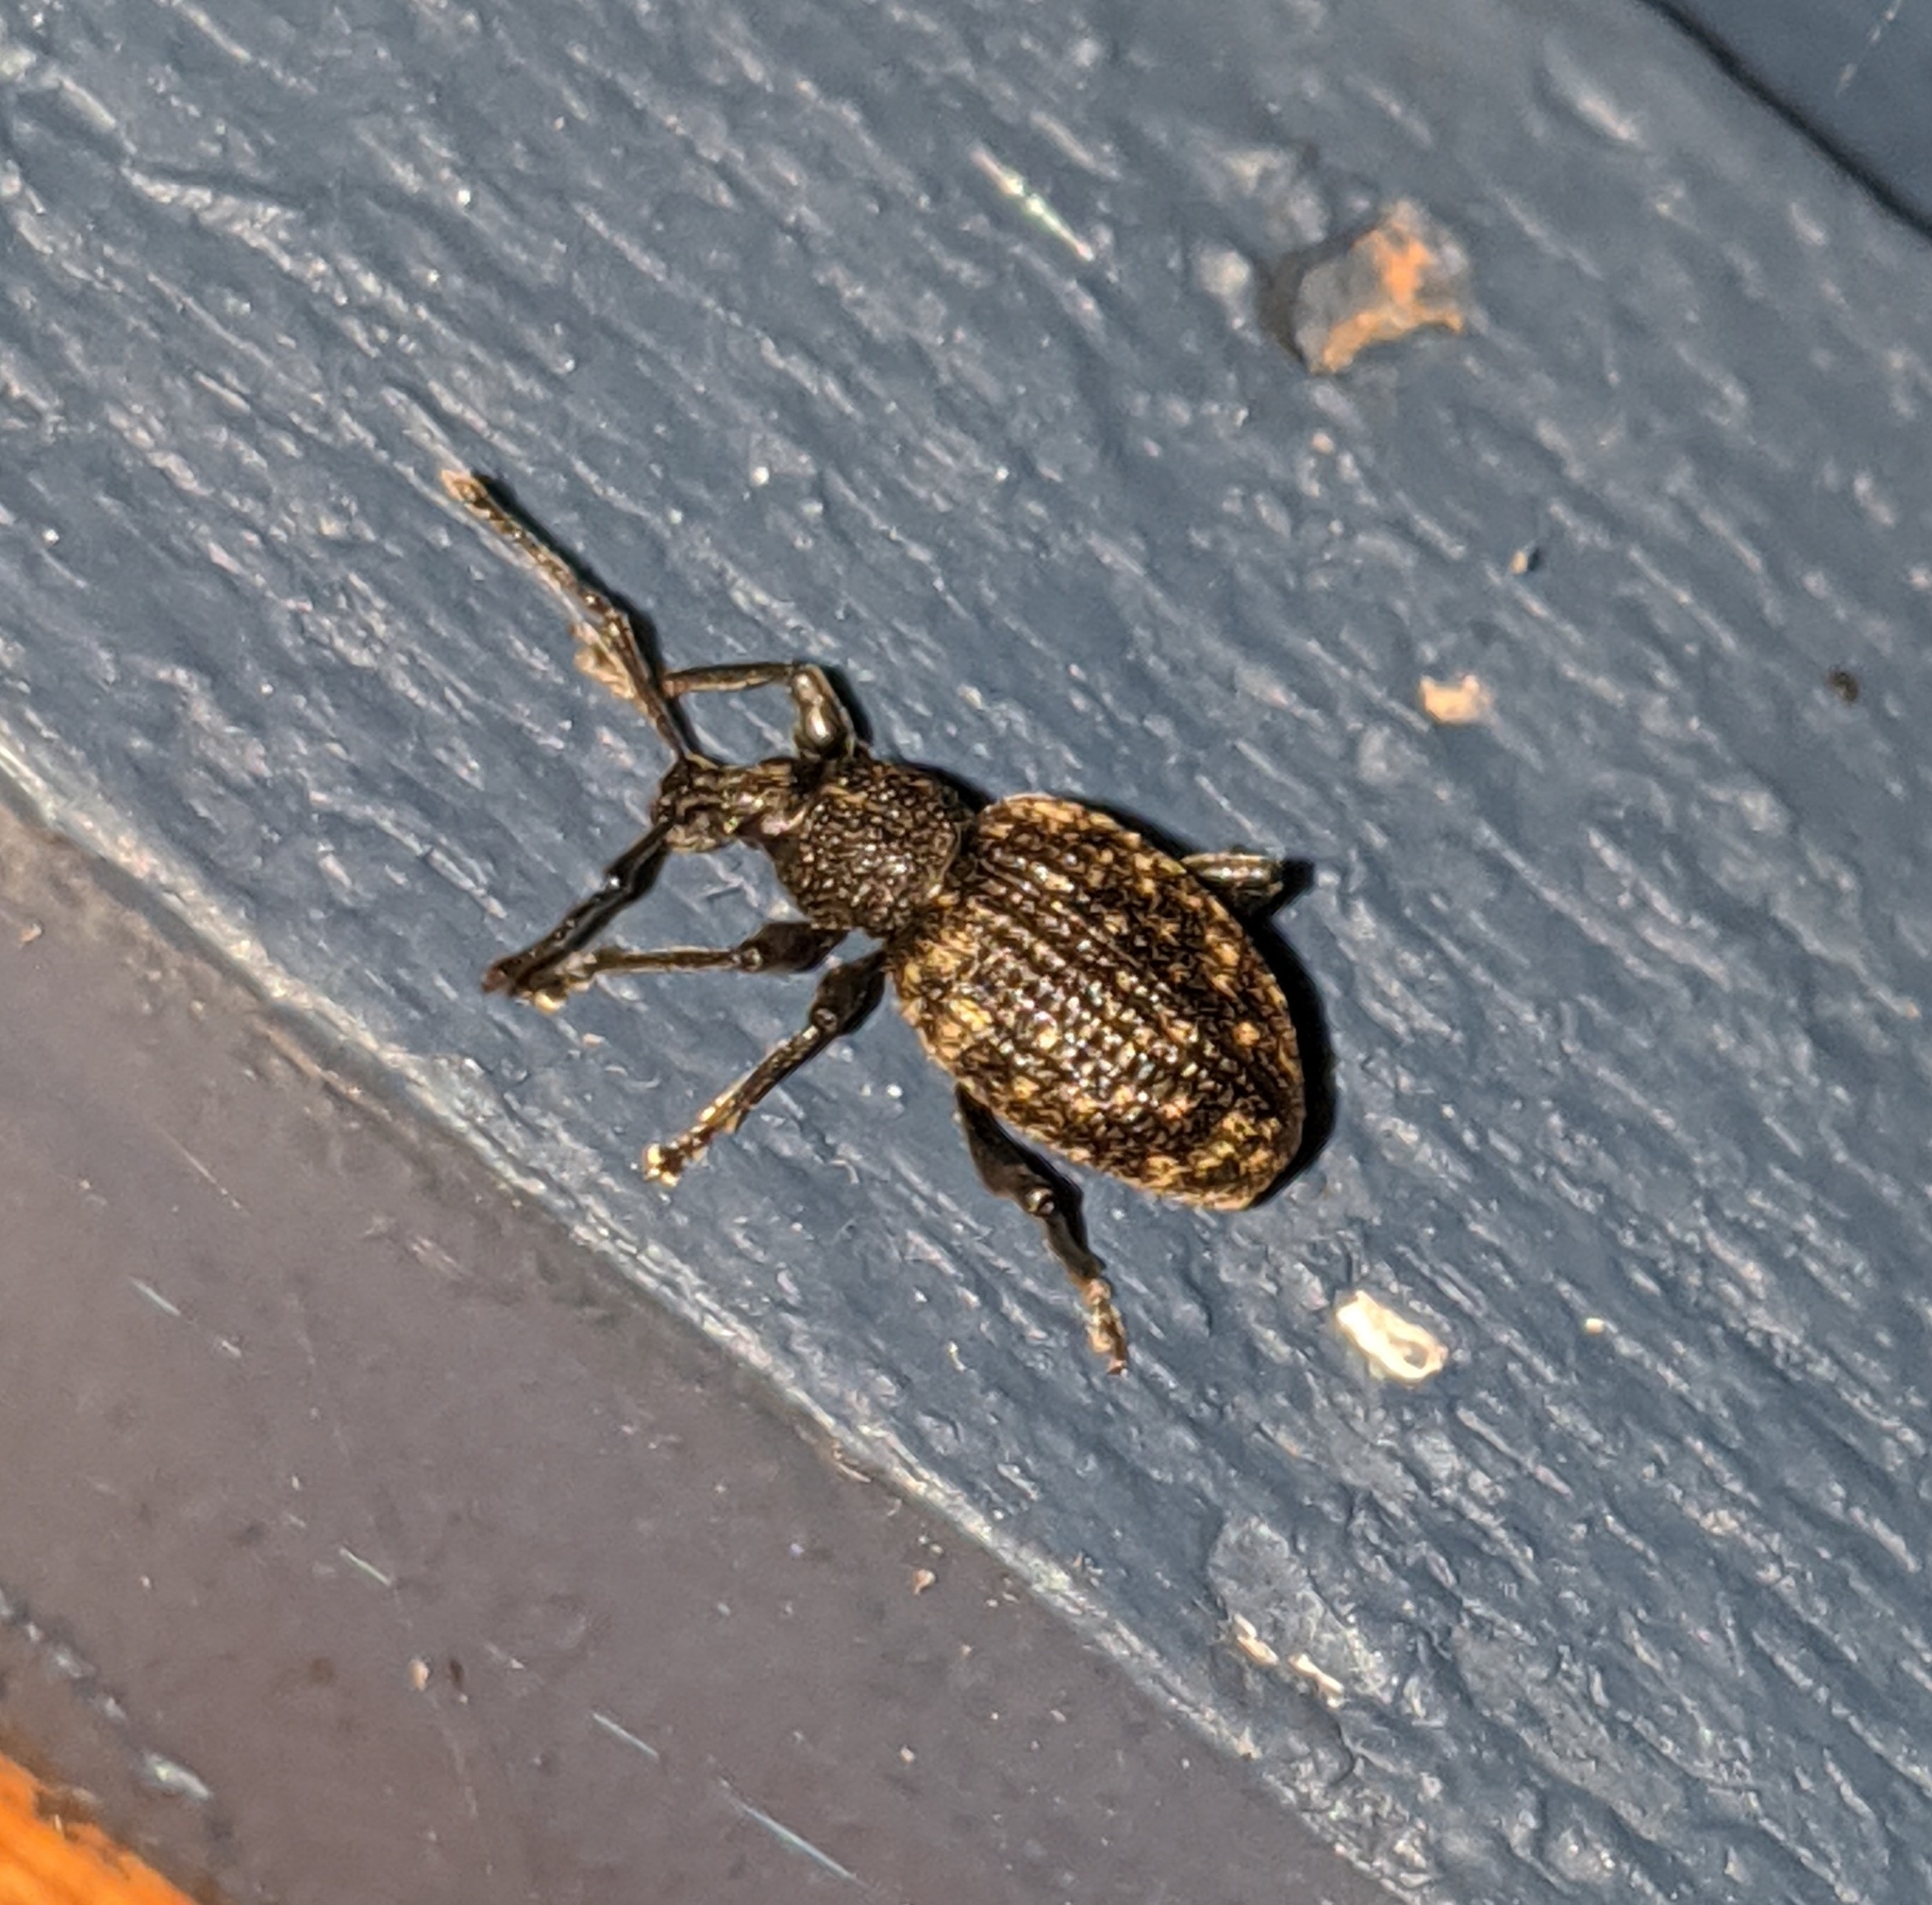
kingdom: Animalia
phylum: Arthropoda
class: Insecta
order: Coleoptera
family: Curculionidae
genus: Otiorhynchus
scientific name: Otiorhynchus sulcatus
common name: Black vine weevil
